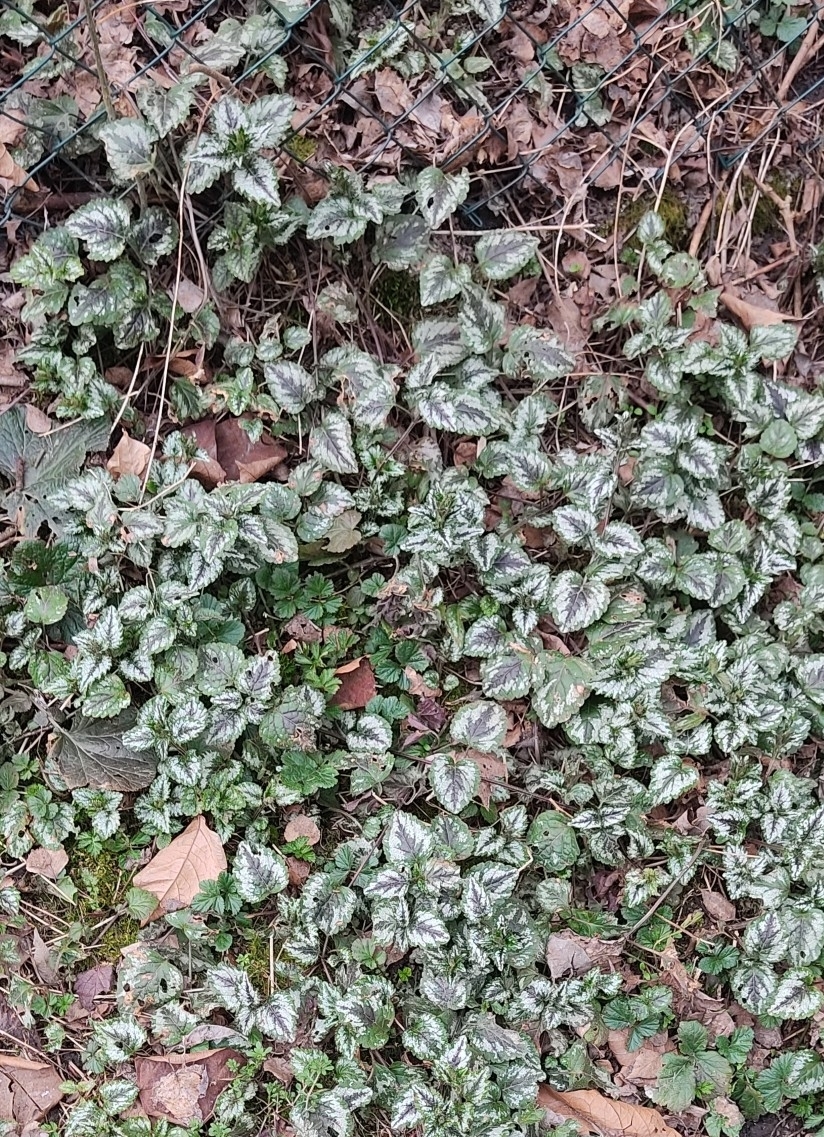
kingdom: Plantae
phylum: Tracheophyta
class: Magnoliopsida
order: Lamiales
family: Lamiaceae
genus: Lamium
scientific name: Lamium galeobdolon
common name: Yellow archangel
